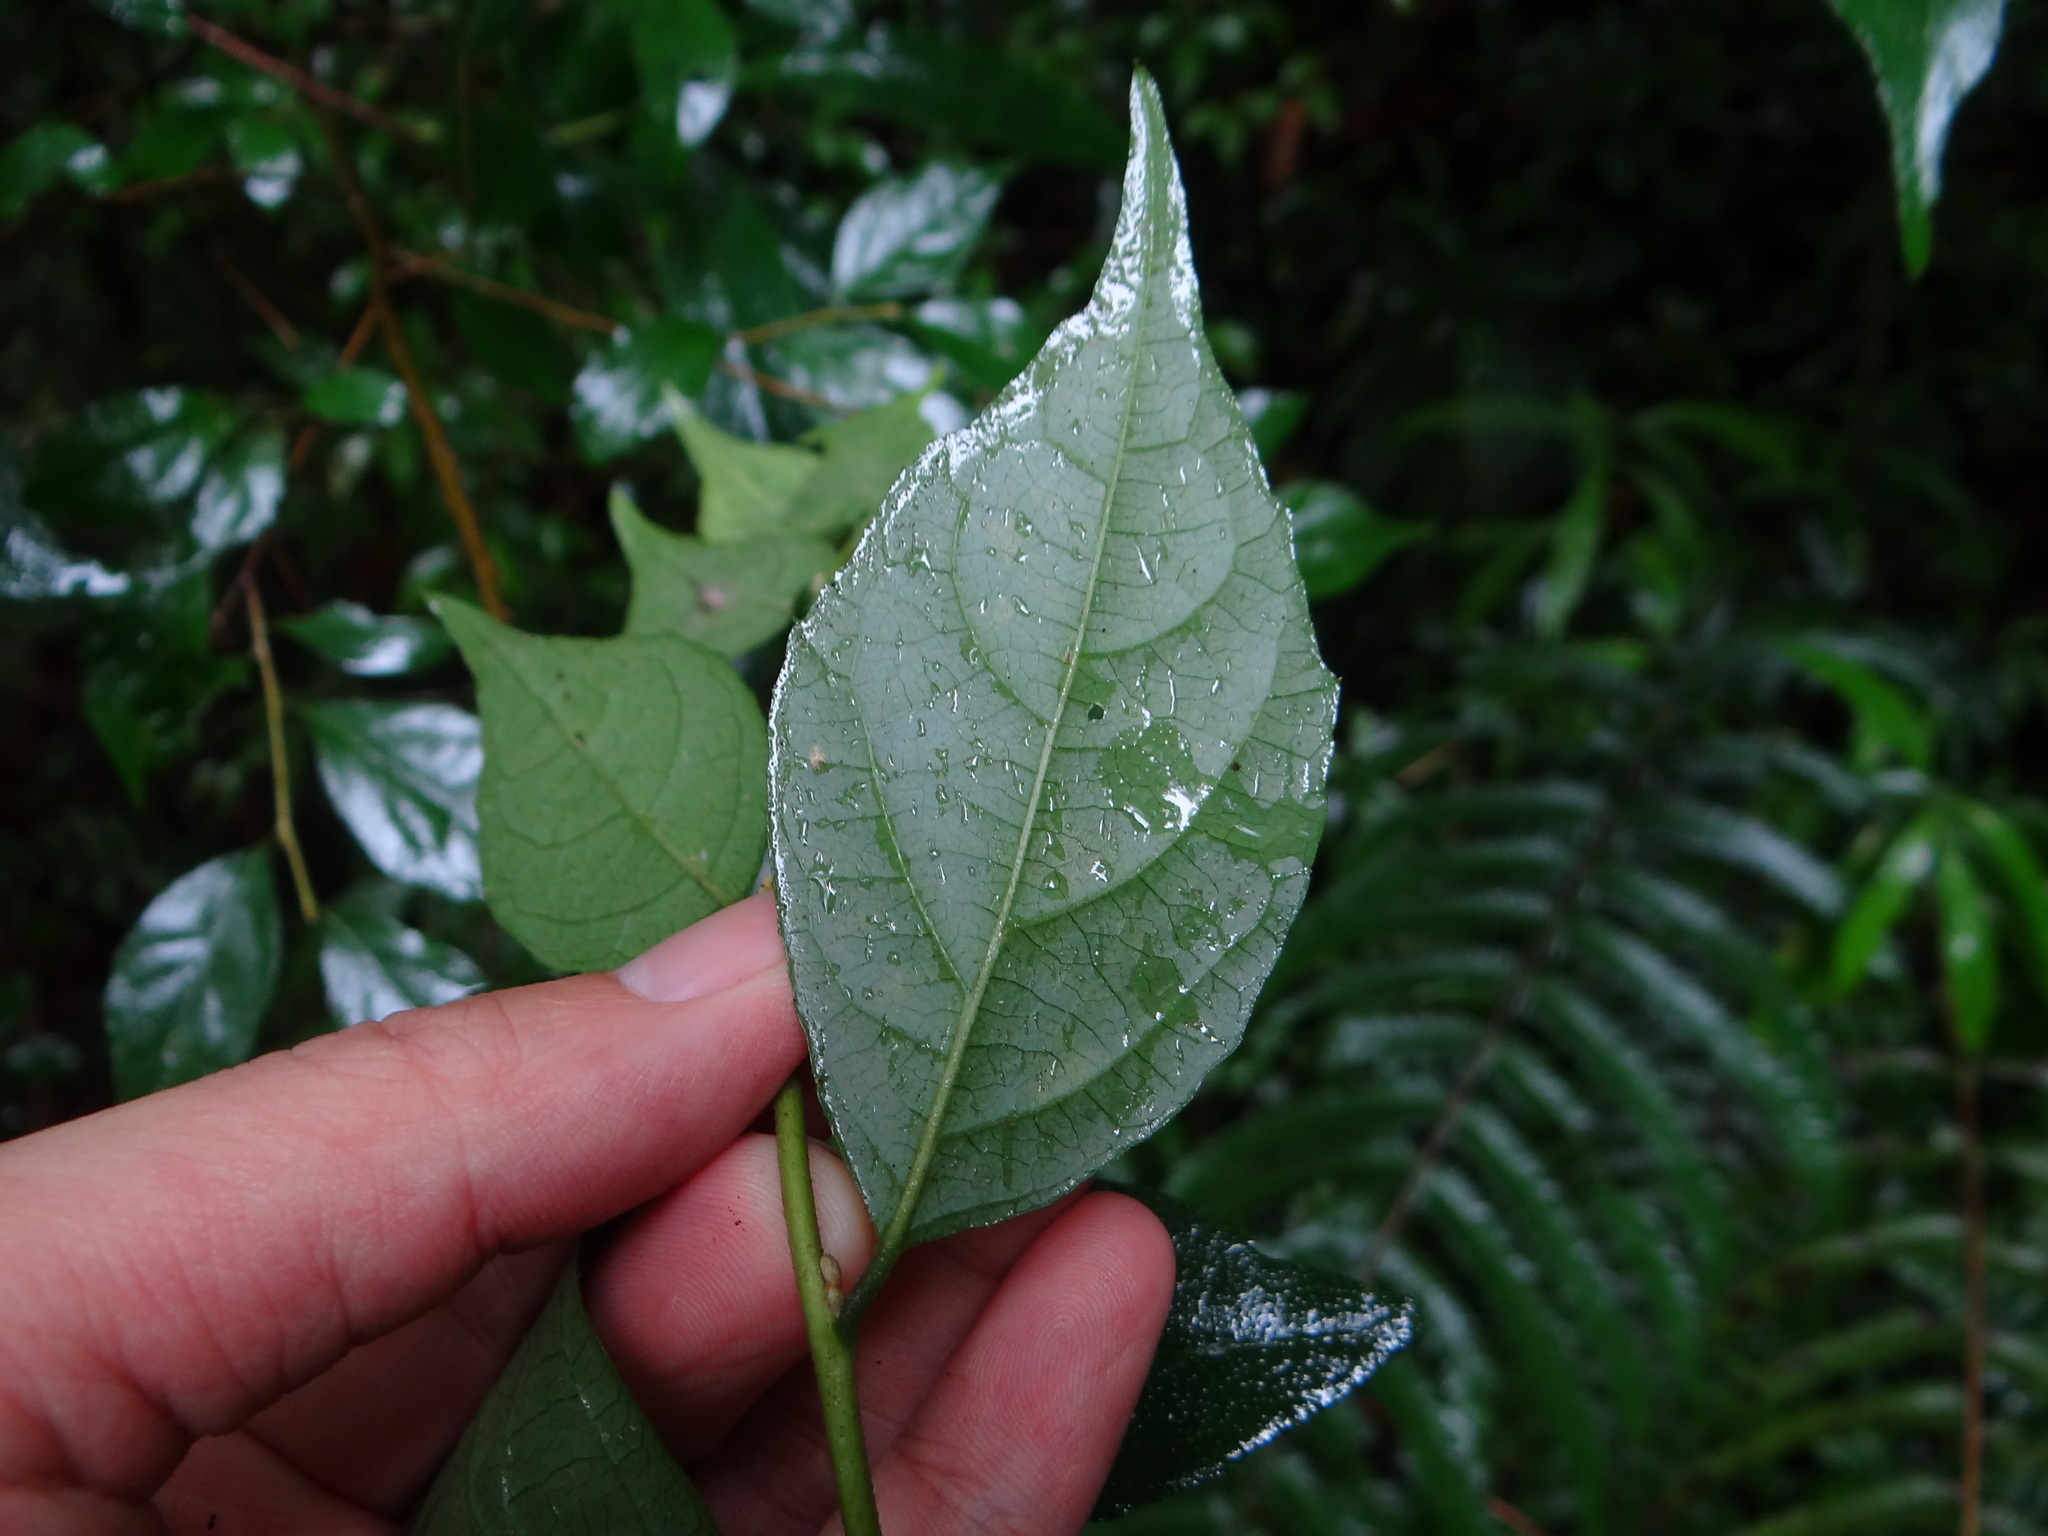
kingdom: Plantae
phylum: Tracheophyta
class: Magnoliopsida
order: Ericales
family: Styracaceae
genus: Styrax
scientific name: Styrax formosanus
